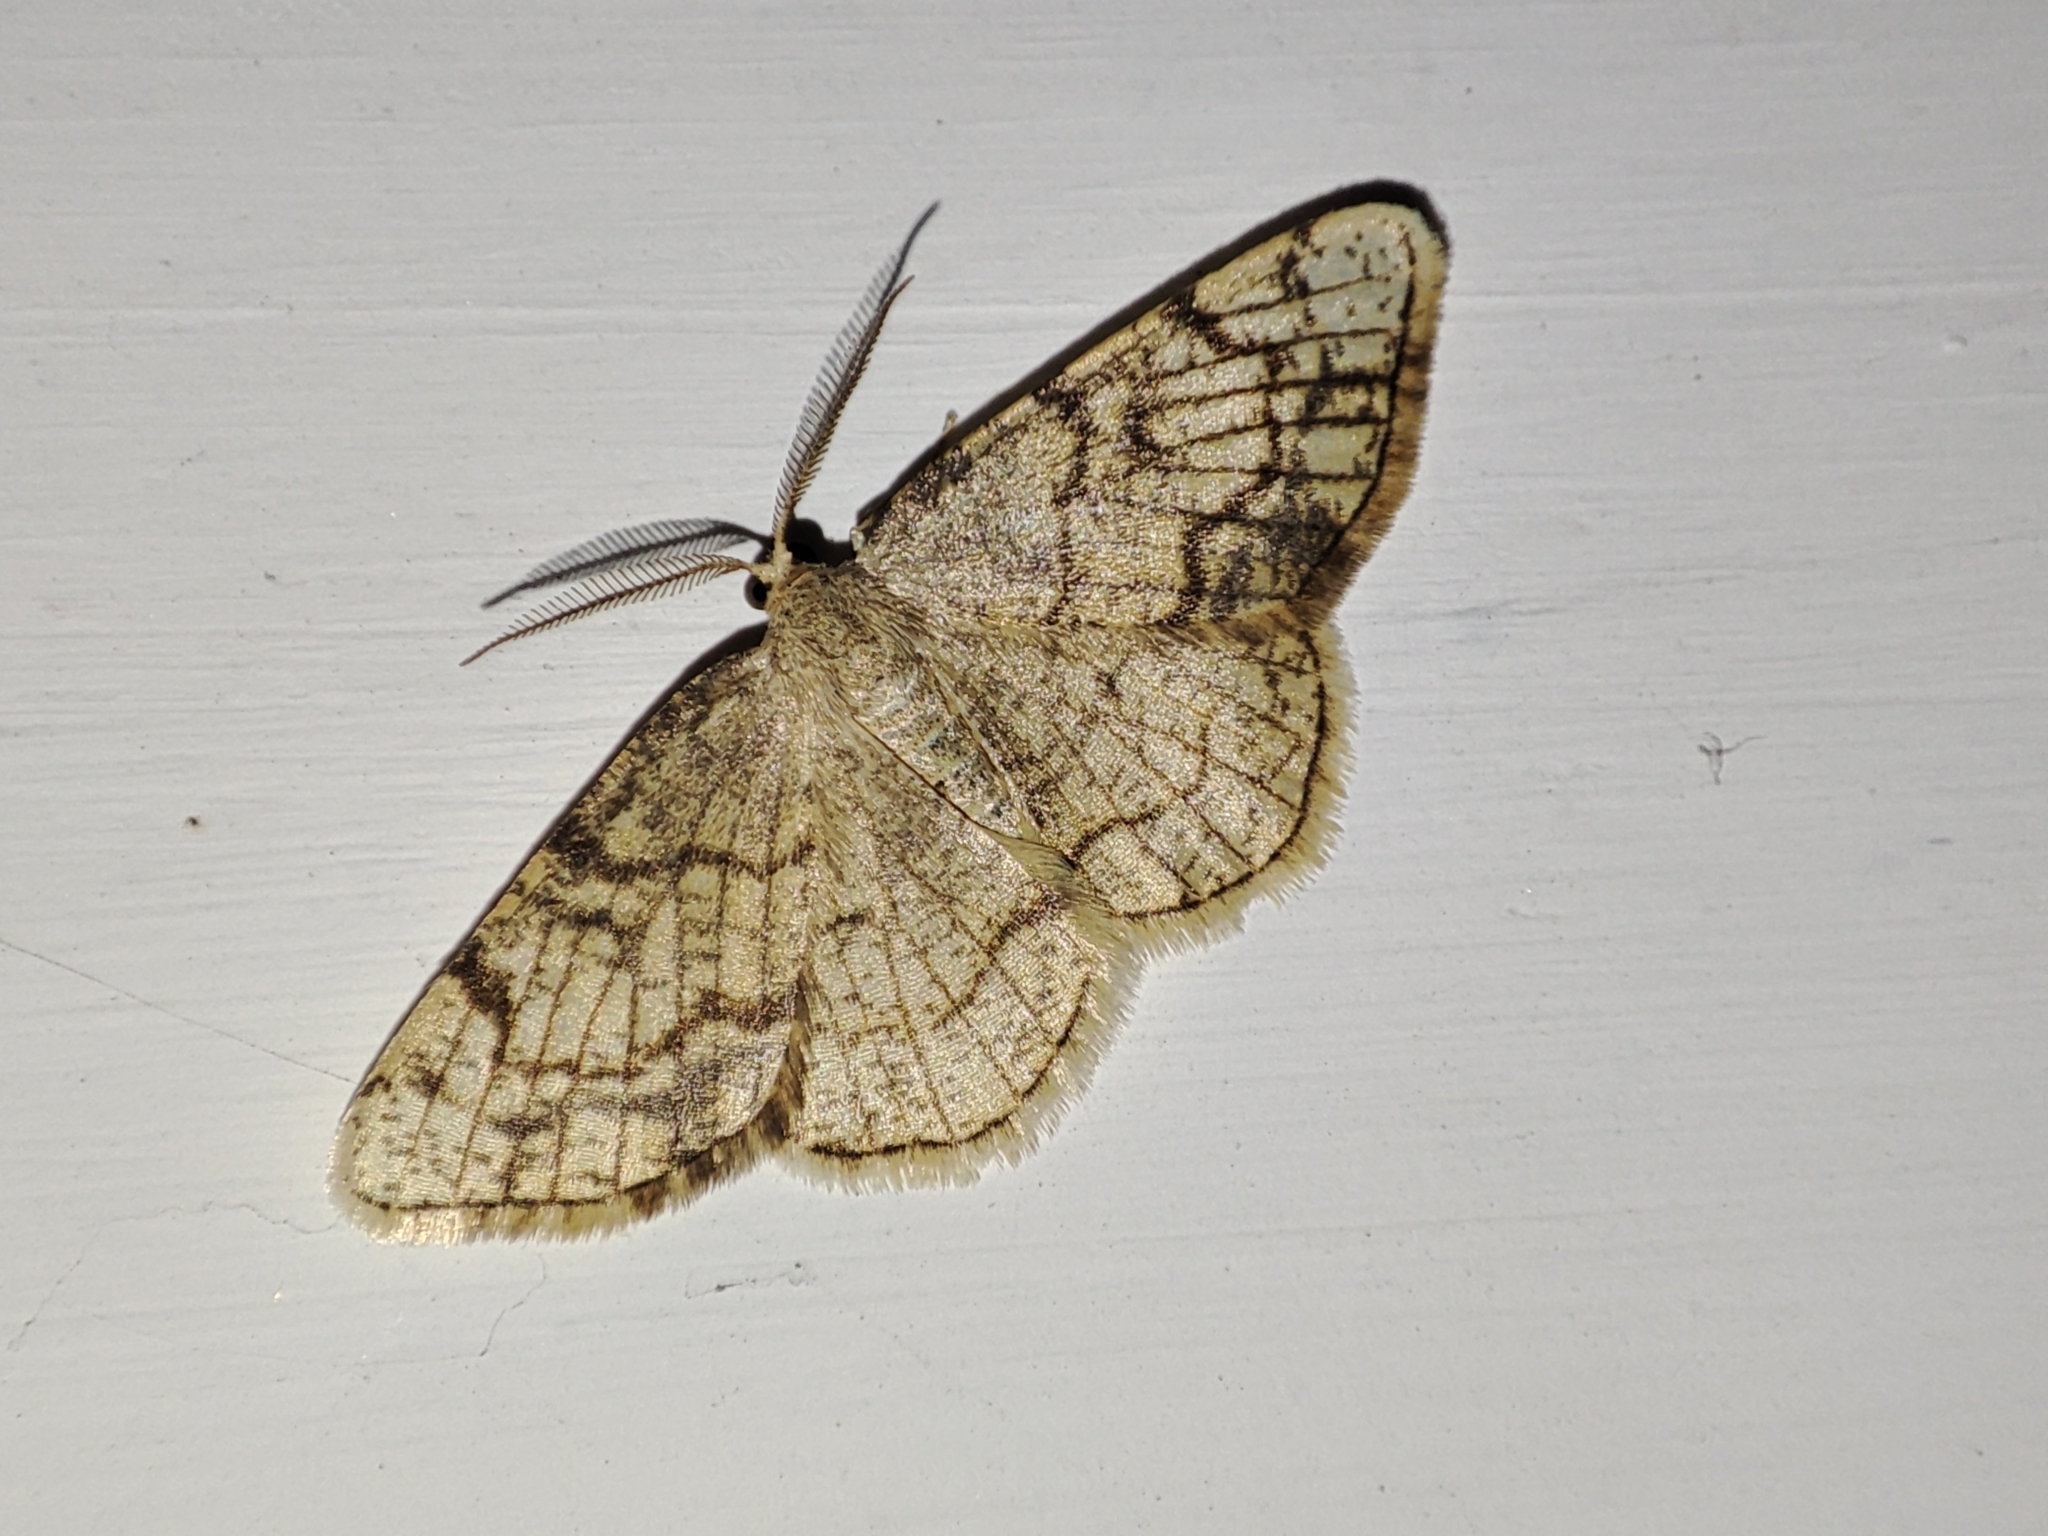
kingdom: Animalia
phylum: Arthropoda
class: Insecta
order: Lepidoptera
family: Geometridae
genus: Stegania
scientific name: Stegania dilectaria
